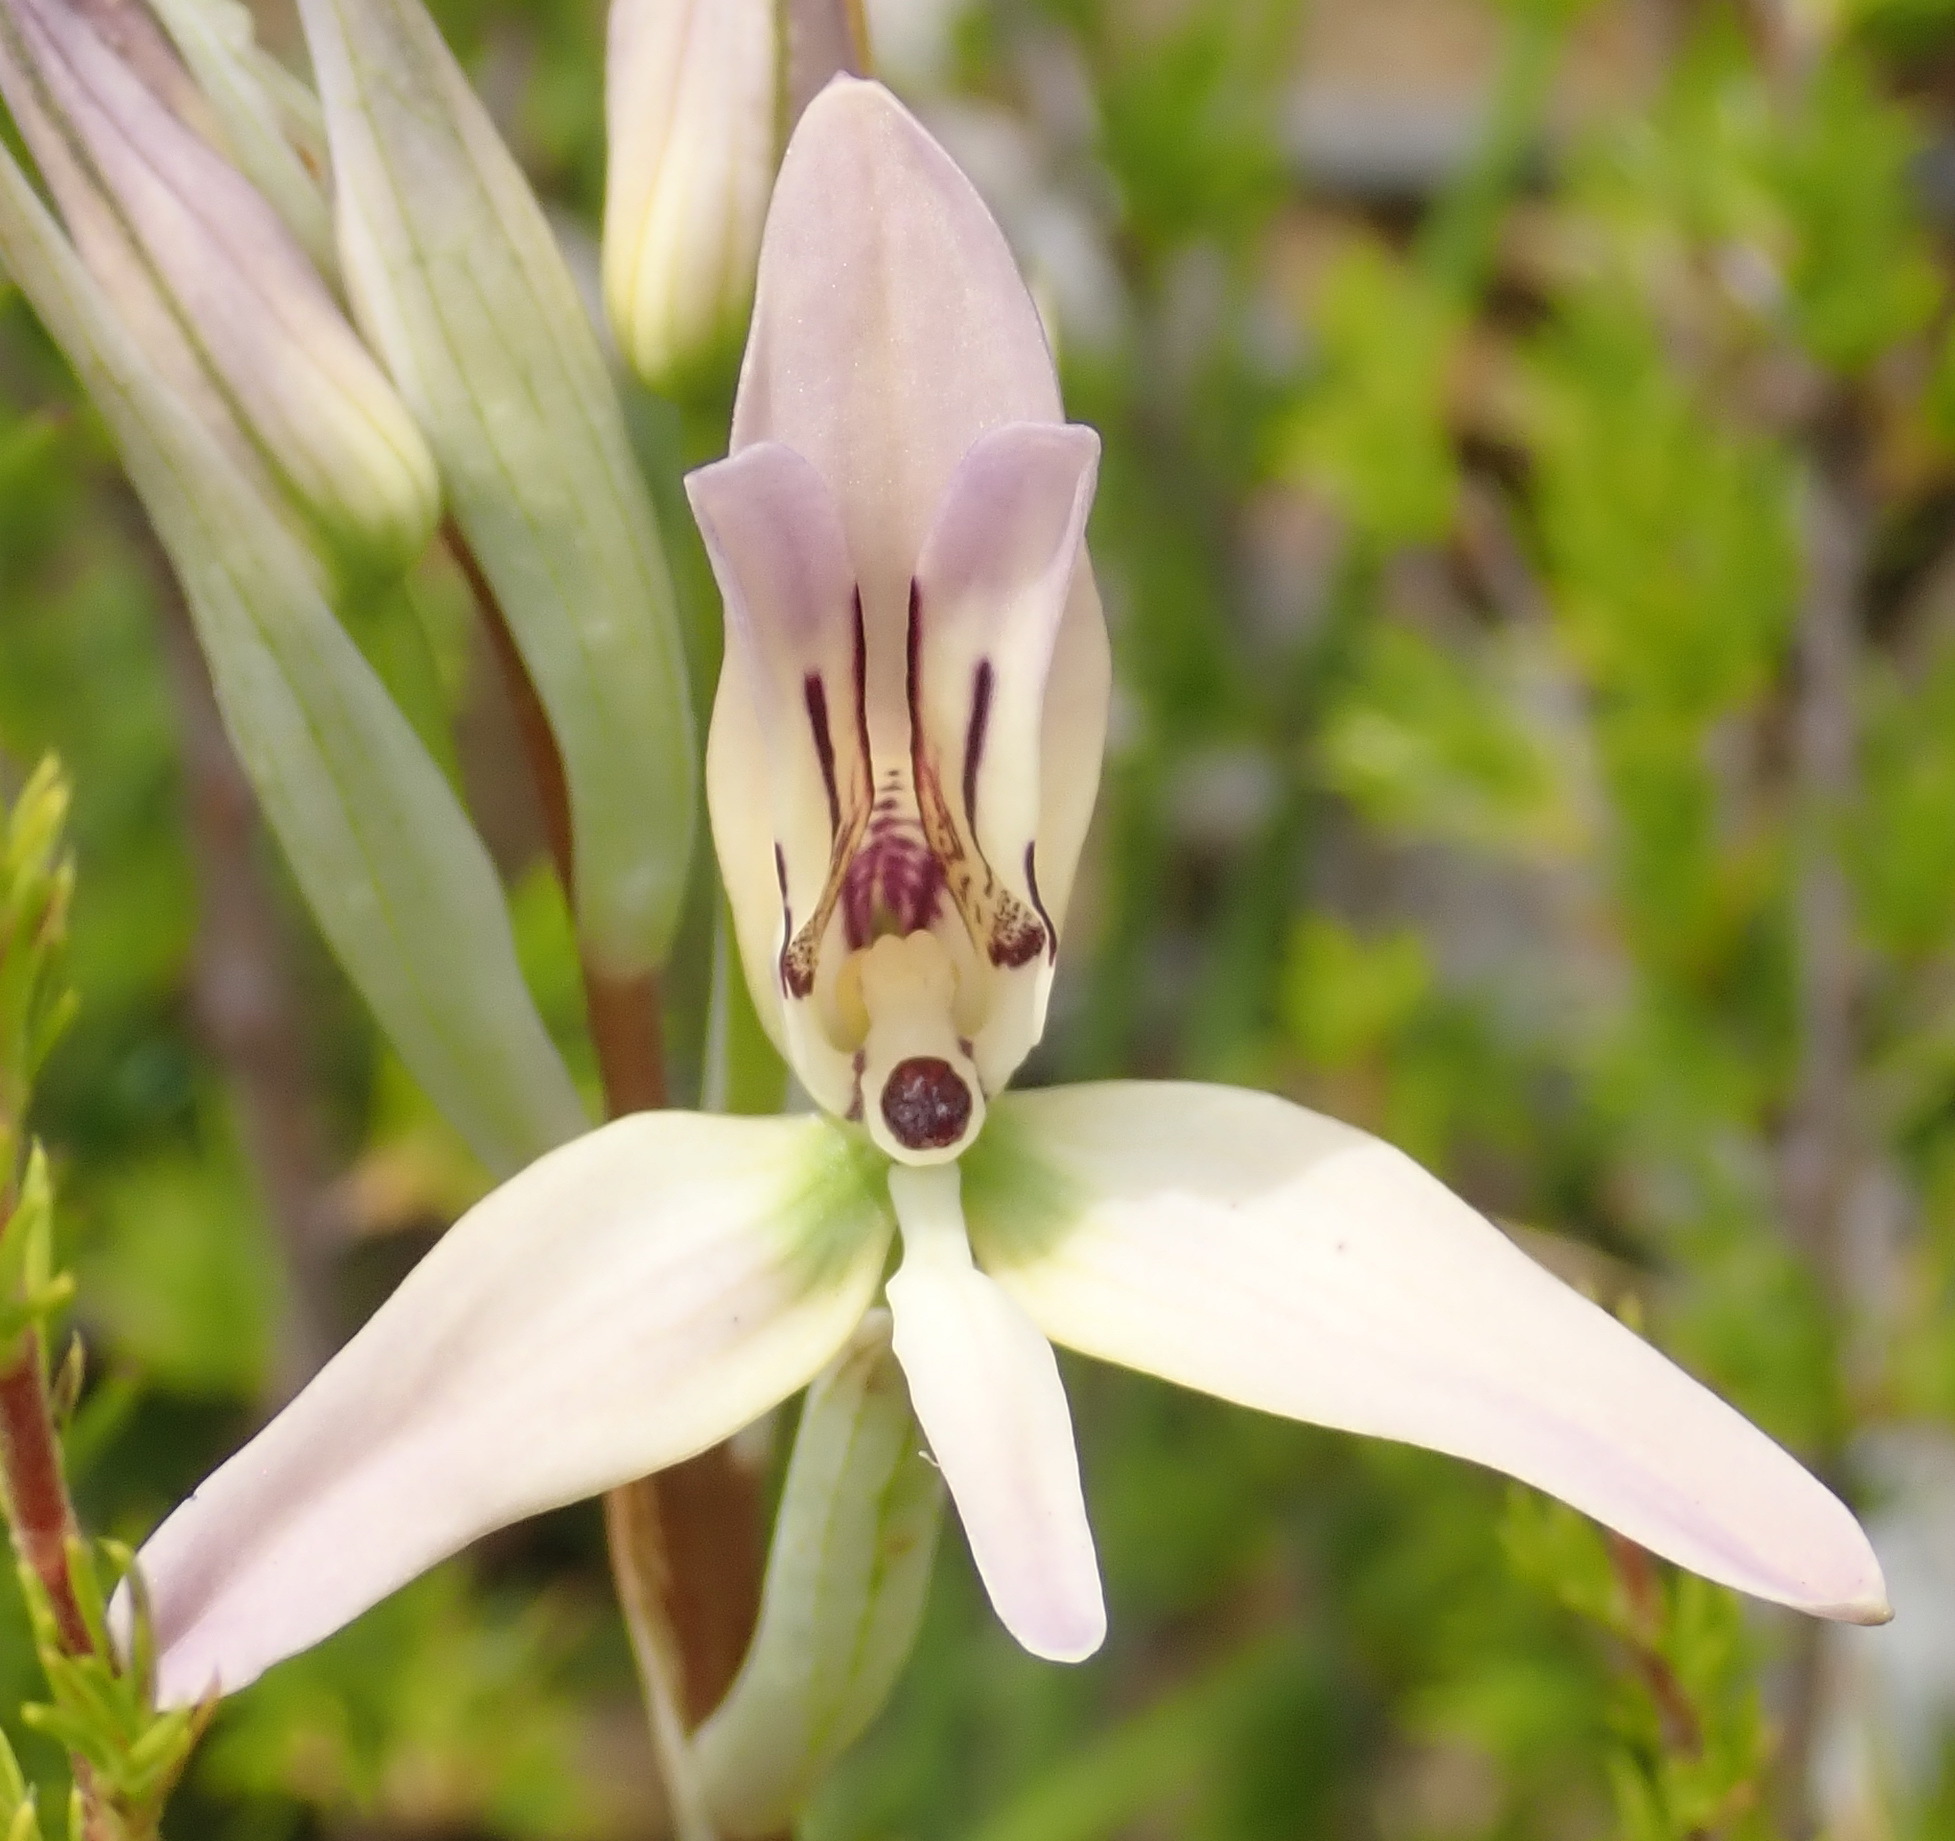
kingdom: Plantae
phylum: Tracheophyta
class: Liliopsida
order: Asparagales
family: Orchidaceae
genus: Disa
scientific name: Disa harveyana
